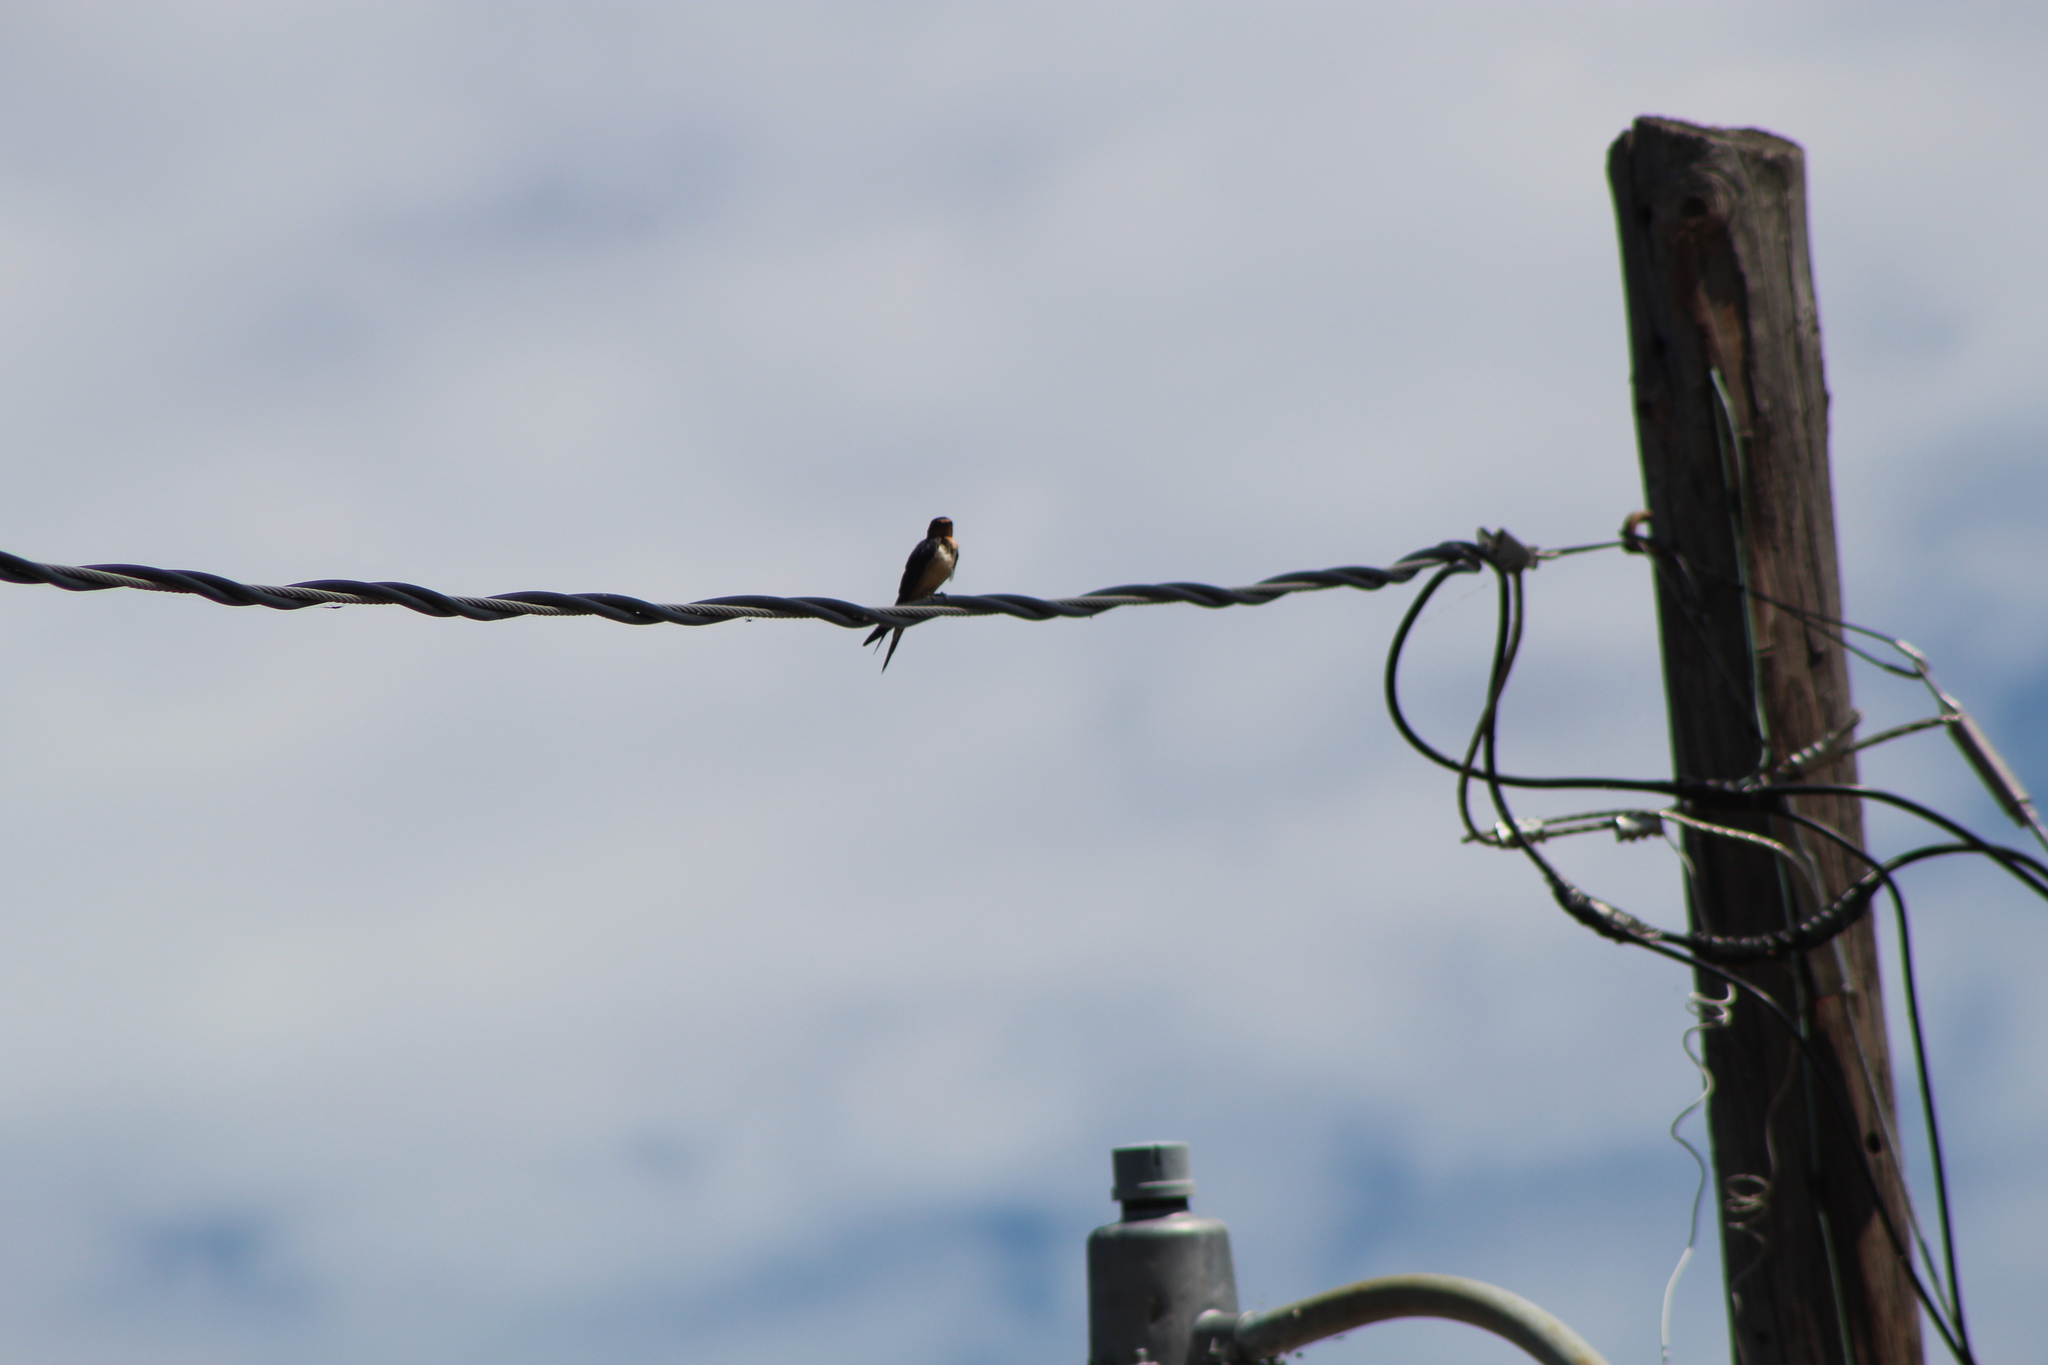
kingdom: Animalia
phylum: Chordata
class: Aves
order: Passeriformes
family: Hirundinidae
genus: Hirundo
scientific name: Hirundo rustica
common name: Barn swallow
